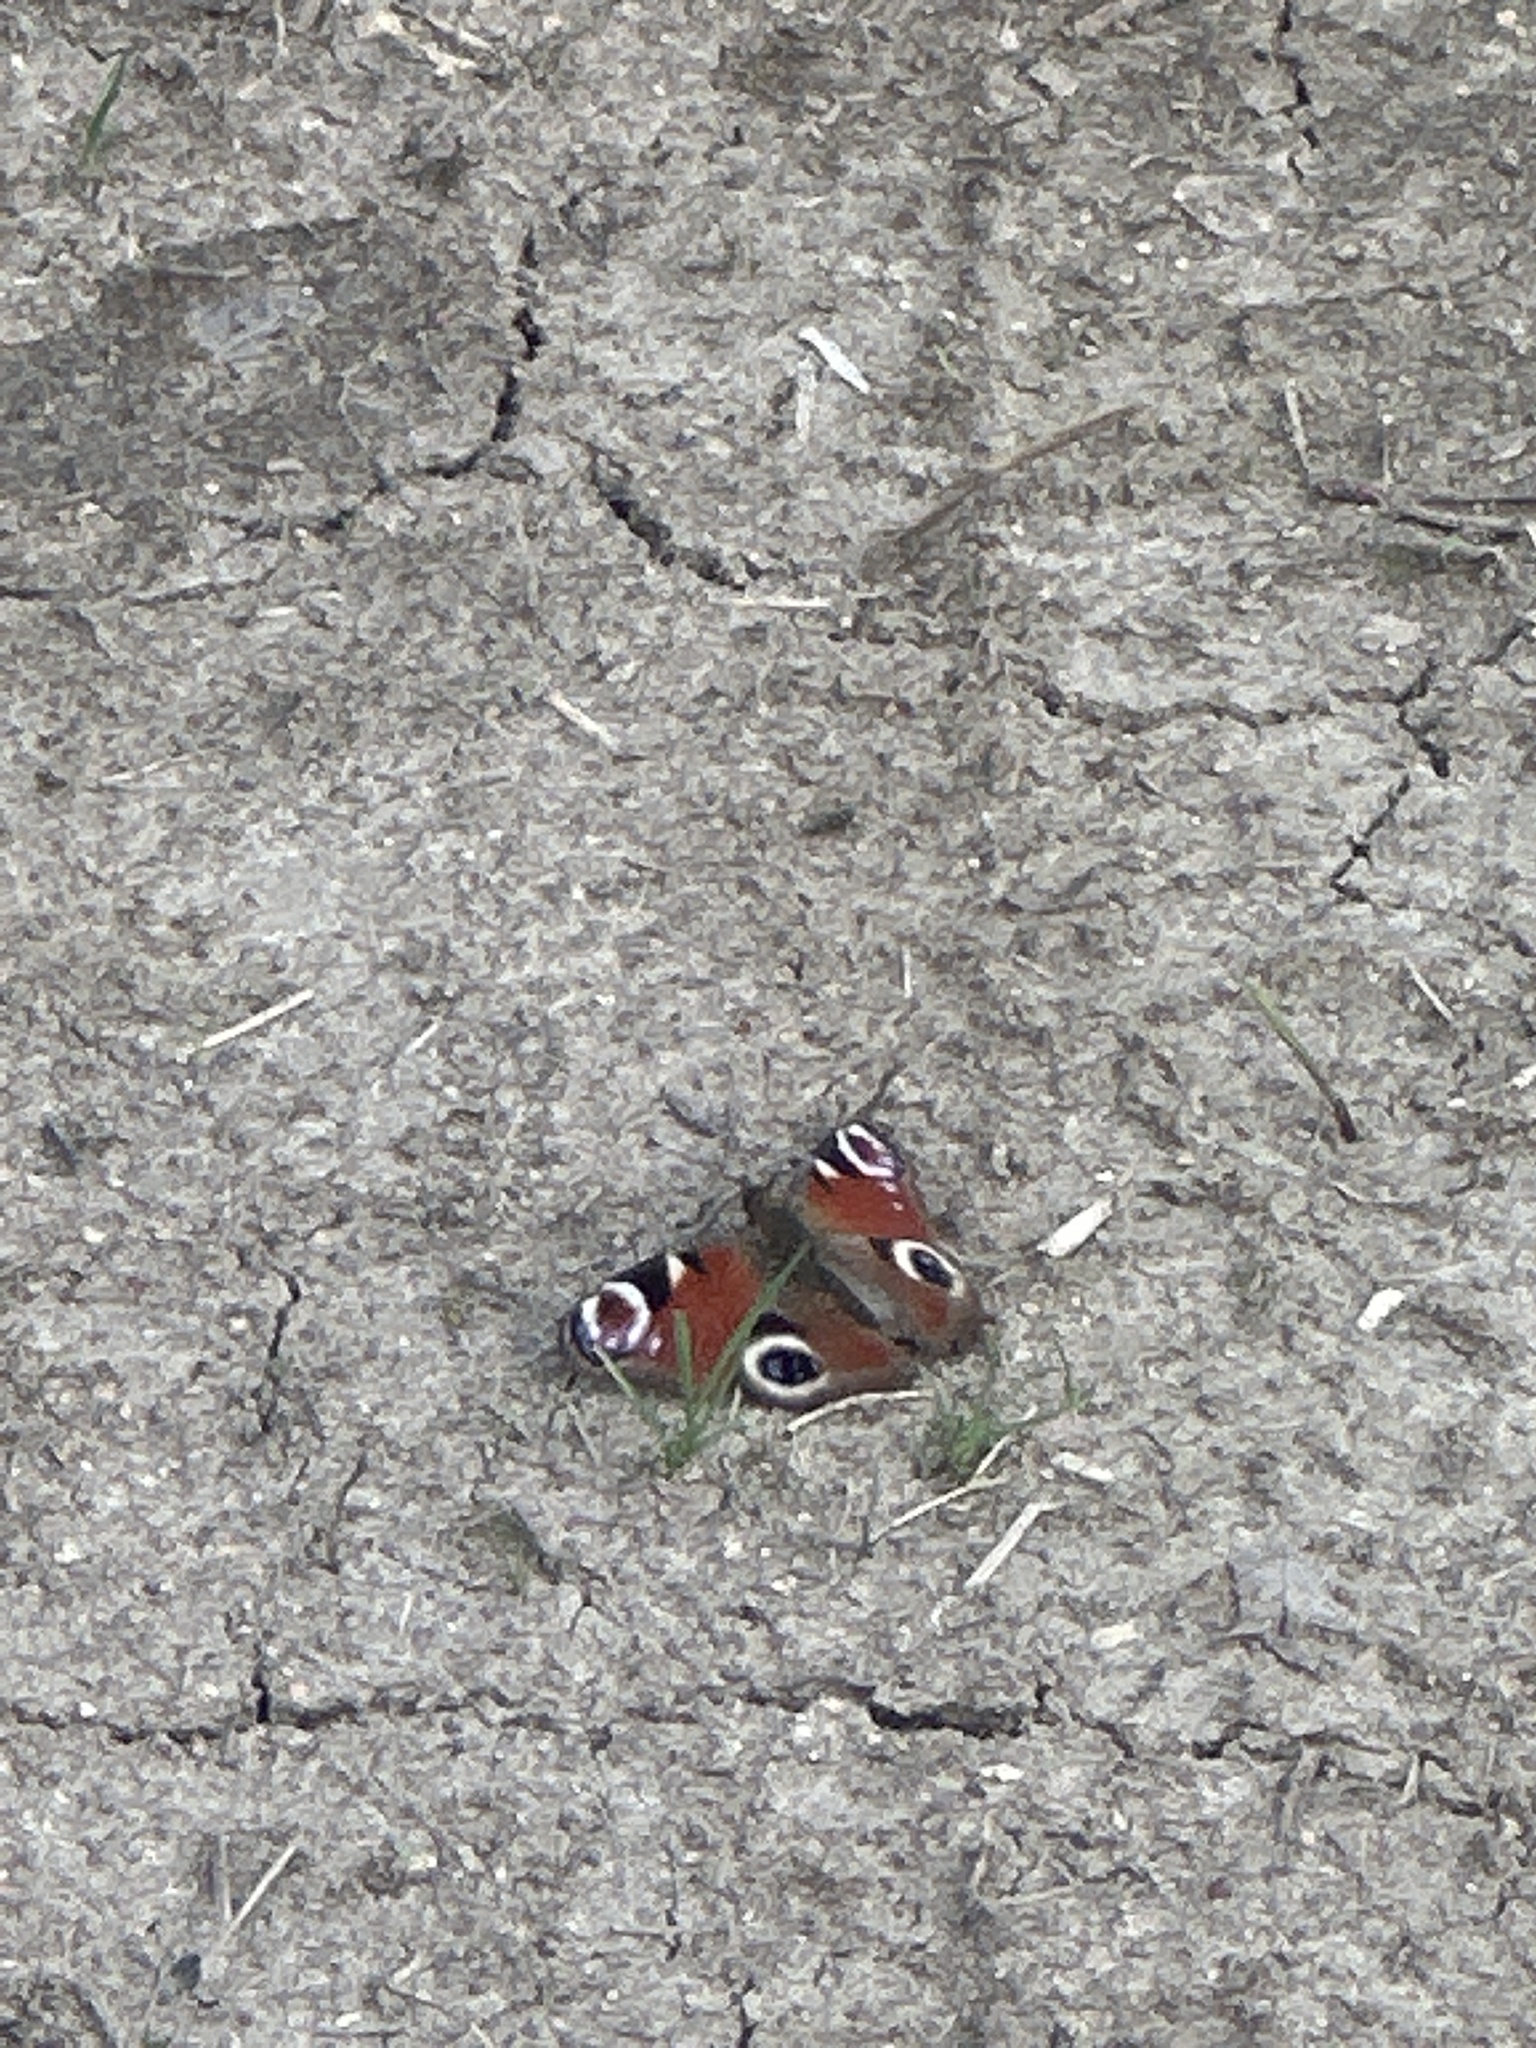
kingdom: Animalia
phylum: Arthropoda
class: Insecta
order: Lepidoptera
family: Nymphalidae
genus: Aglais
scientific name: Aglais io
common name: Peacock
